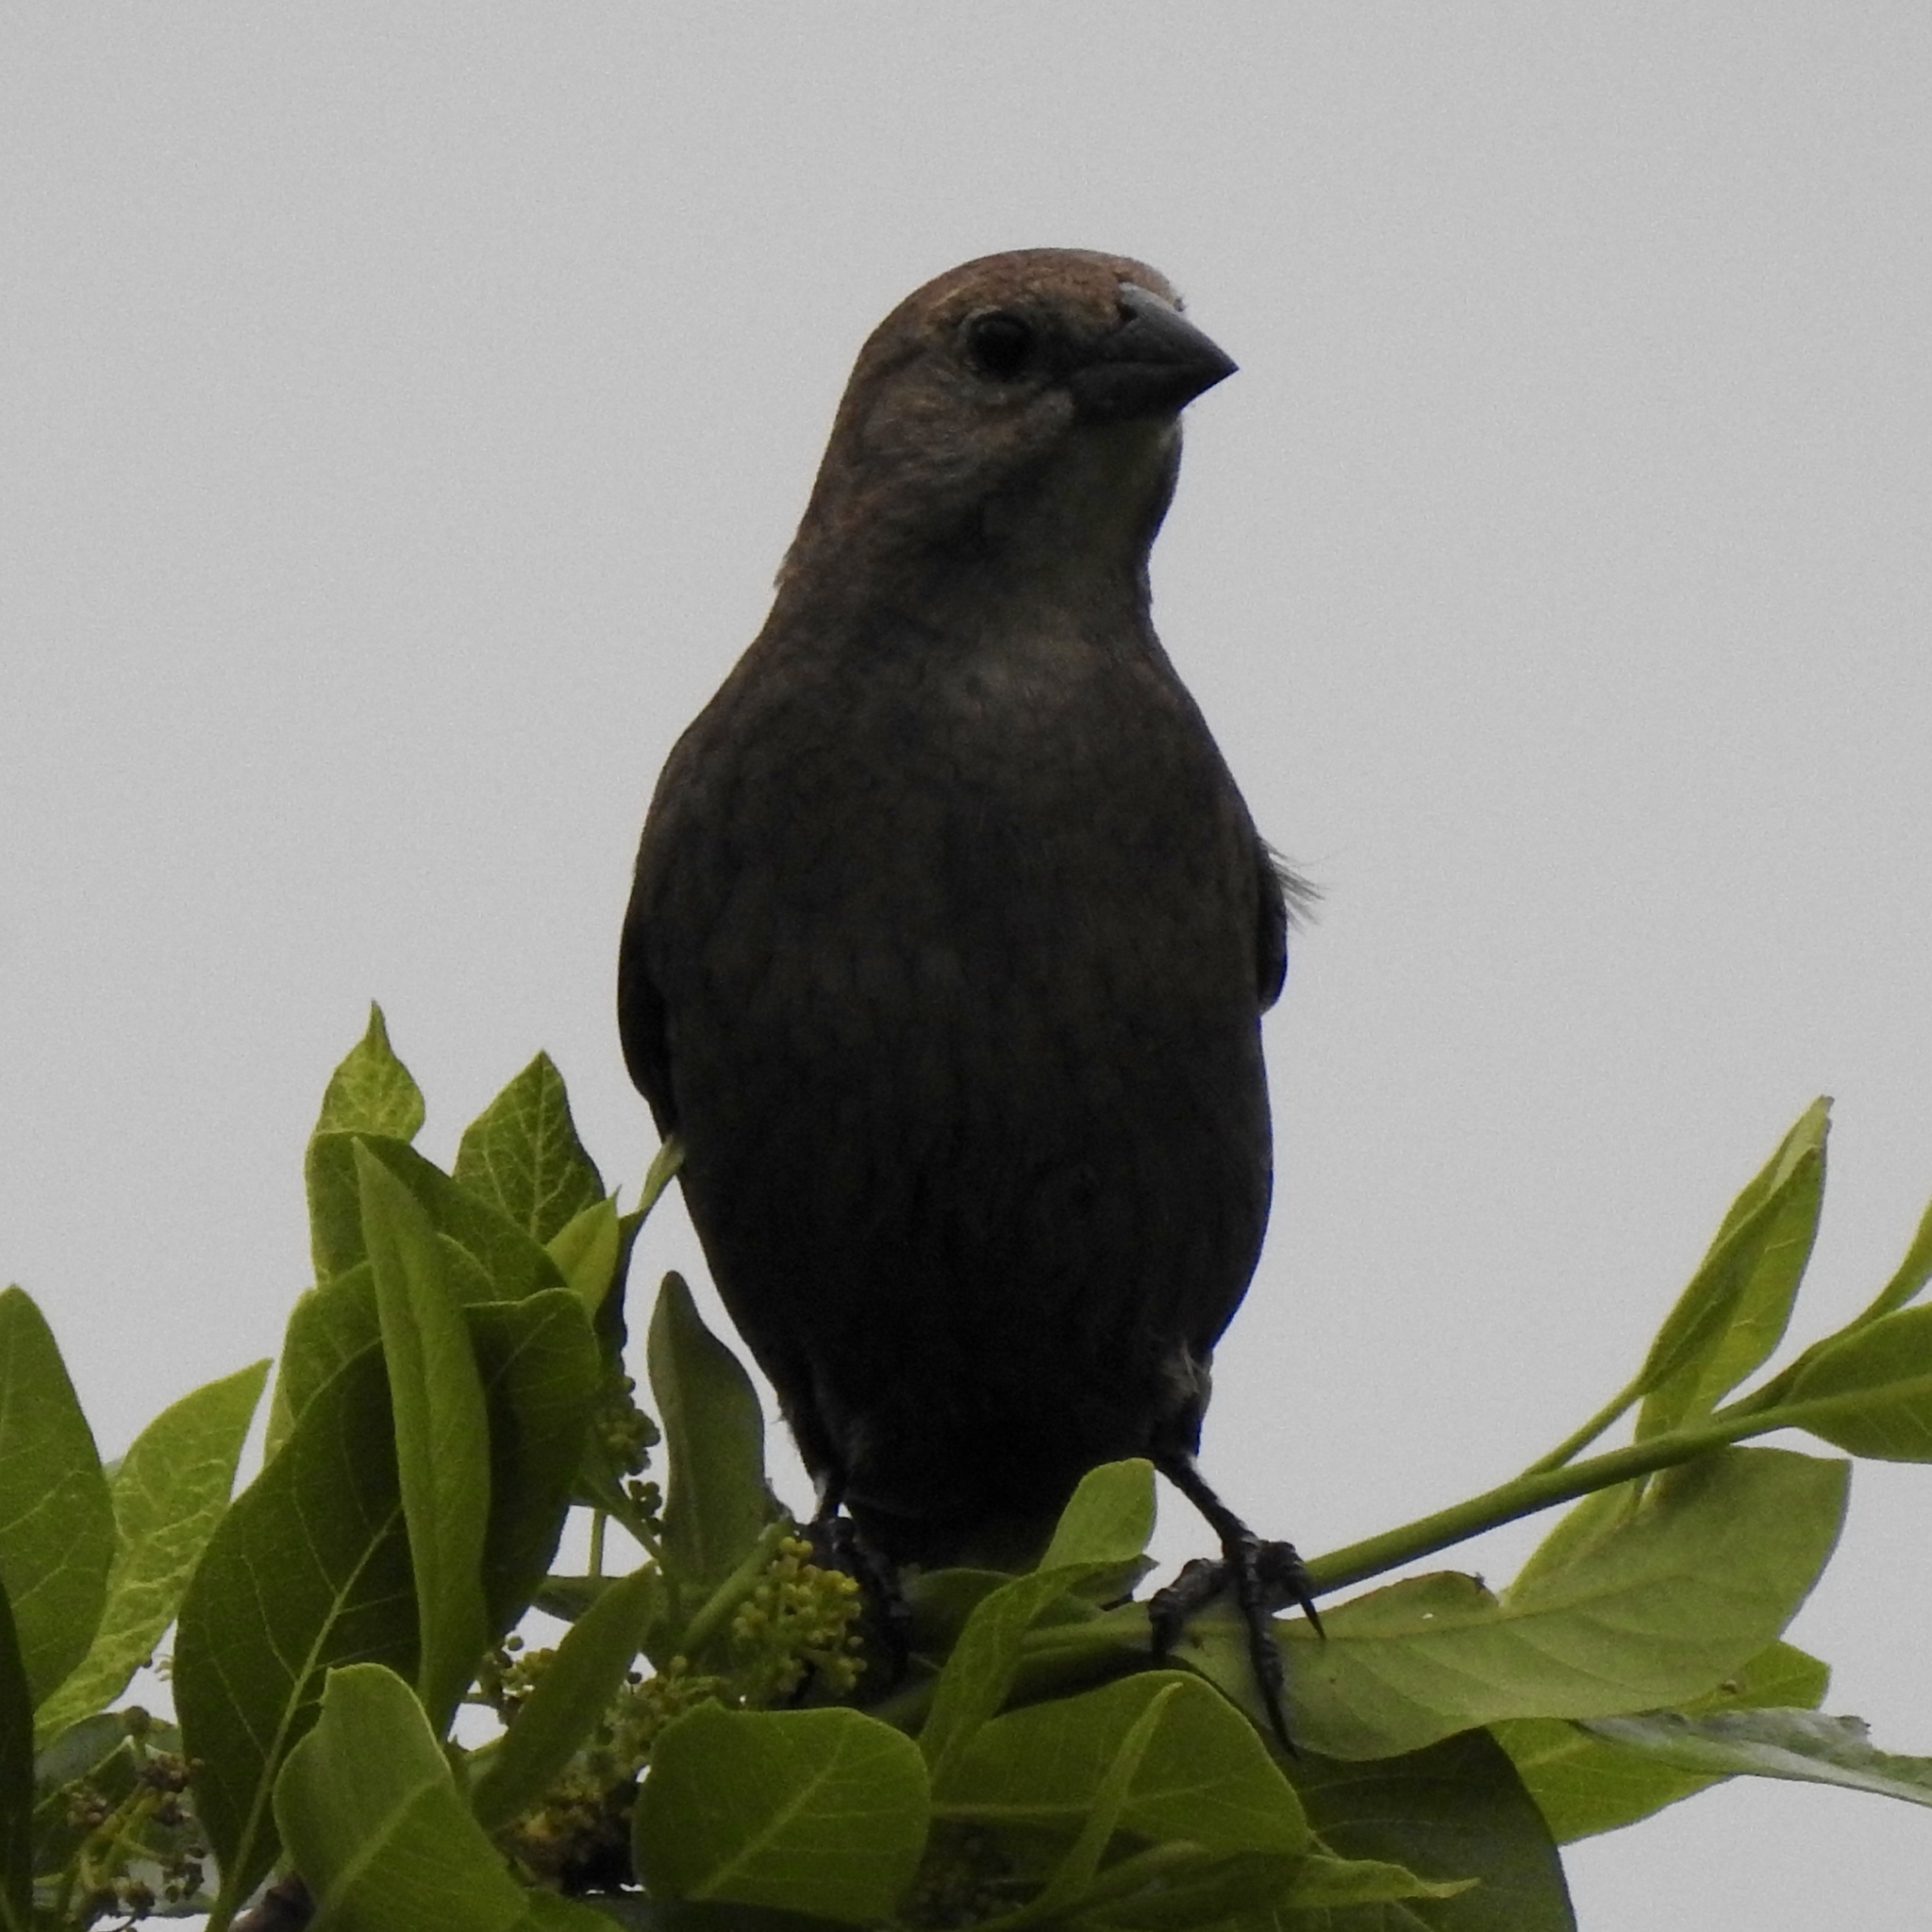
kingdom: Animalia
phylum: Chordata
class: Aves
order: Passeriformes
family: Icteridae
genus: Molothrus
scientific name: Molothrus ater
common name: Brown-headed cowbird
